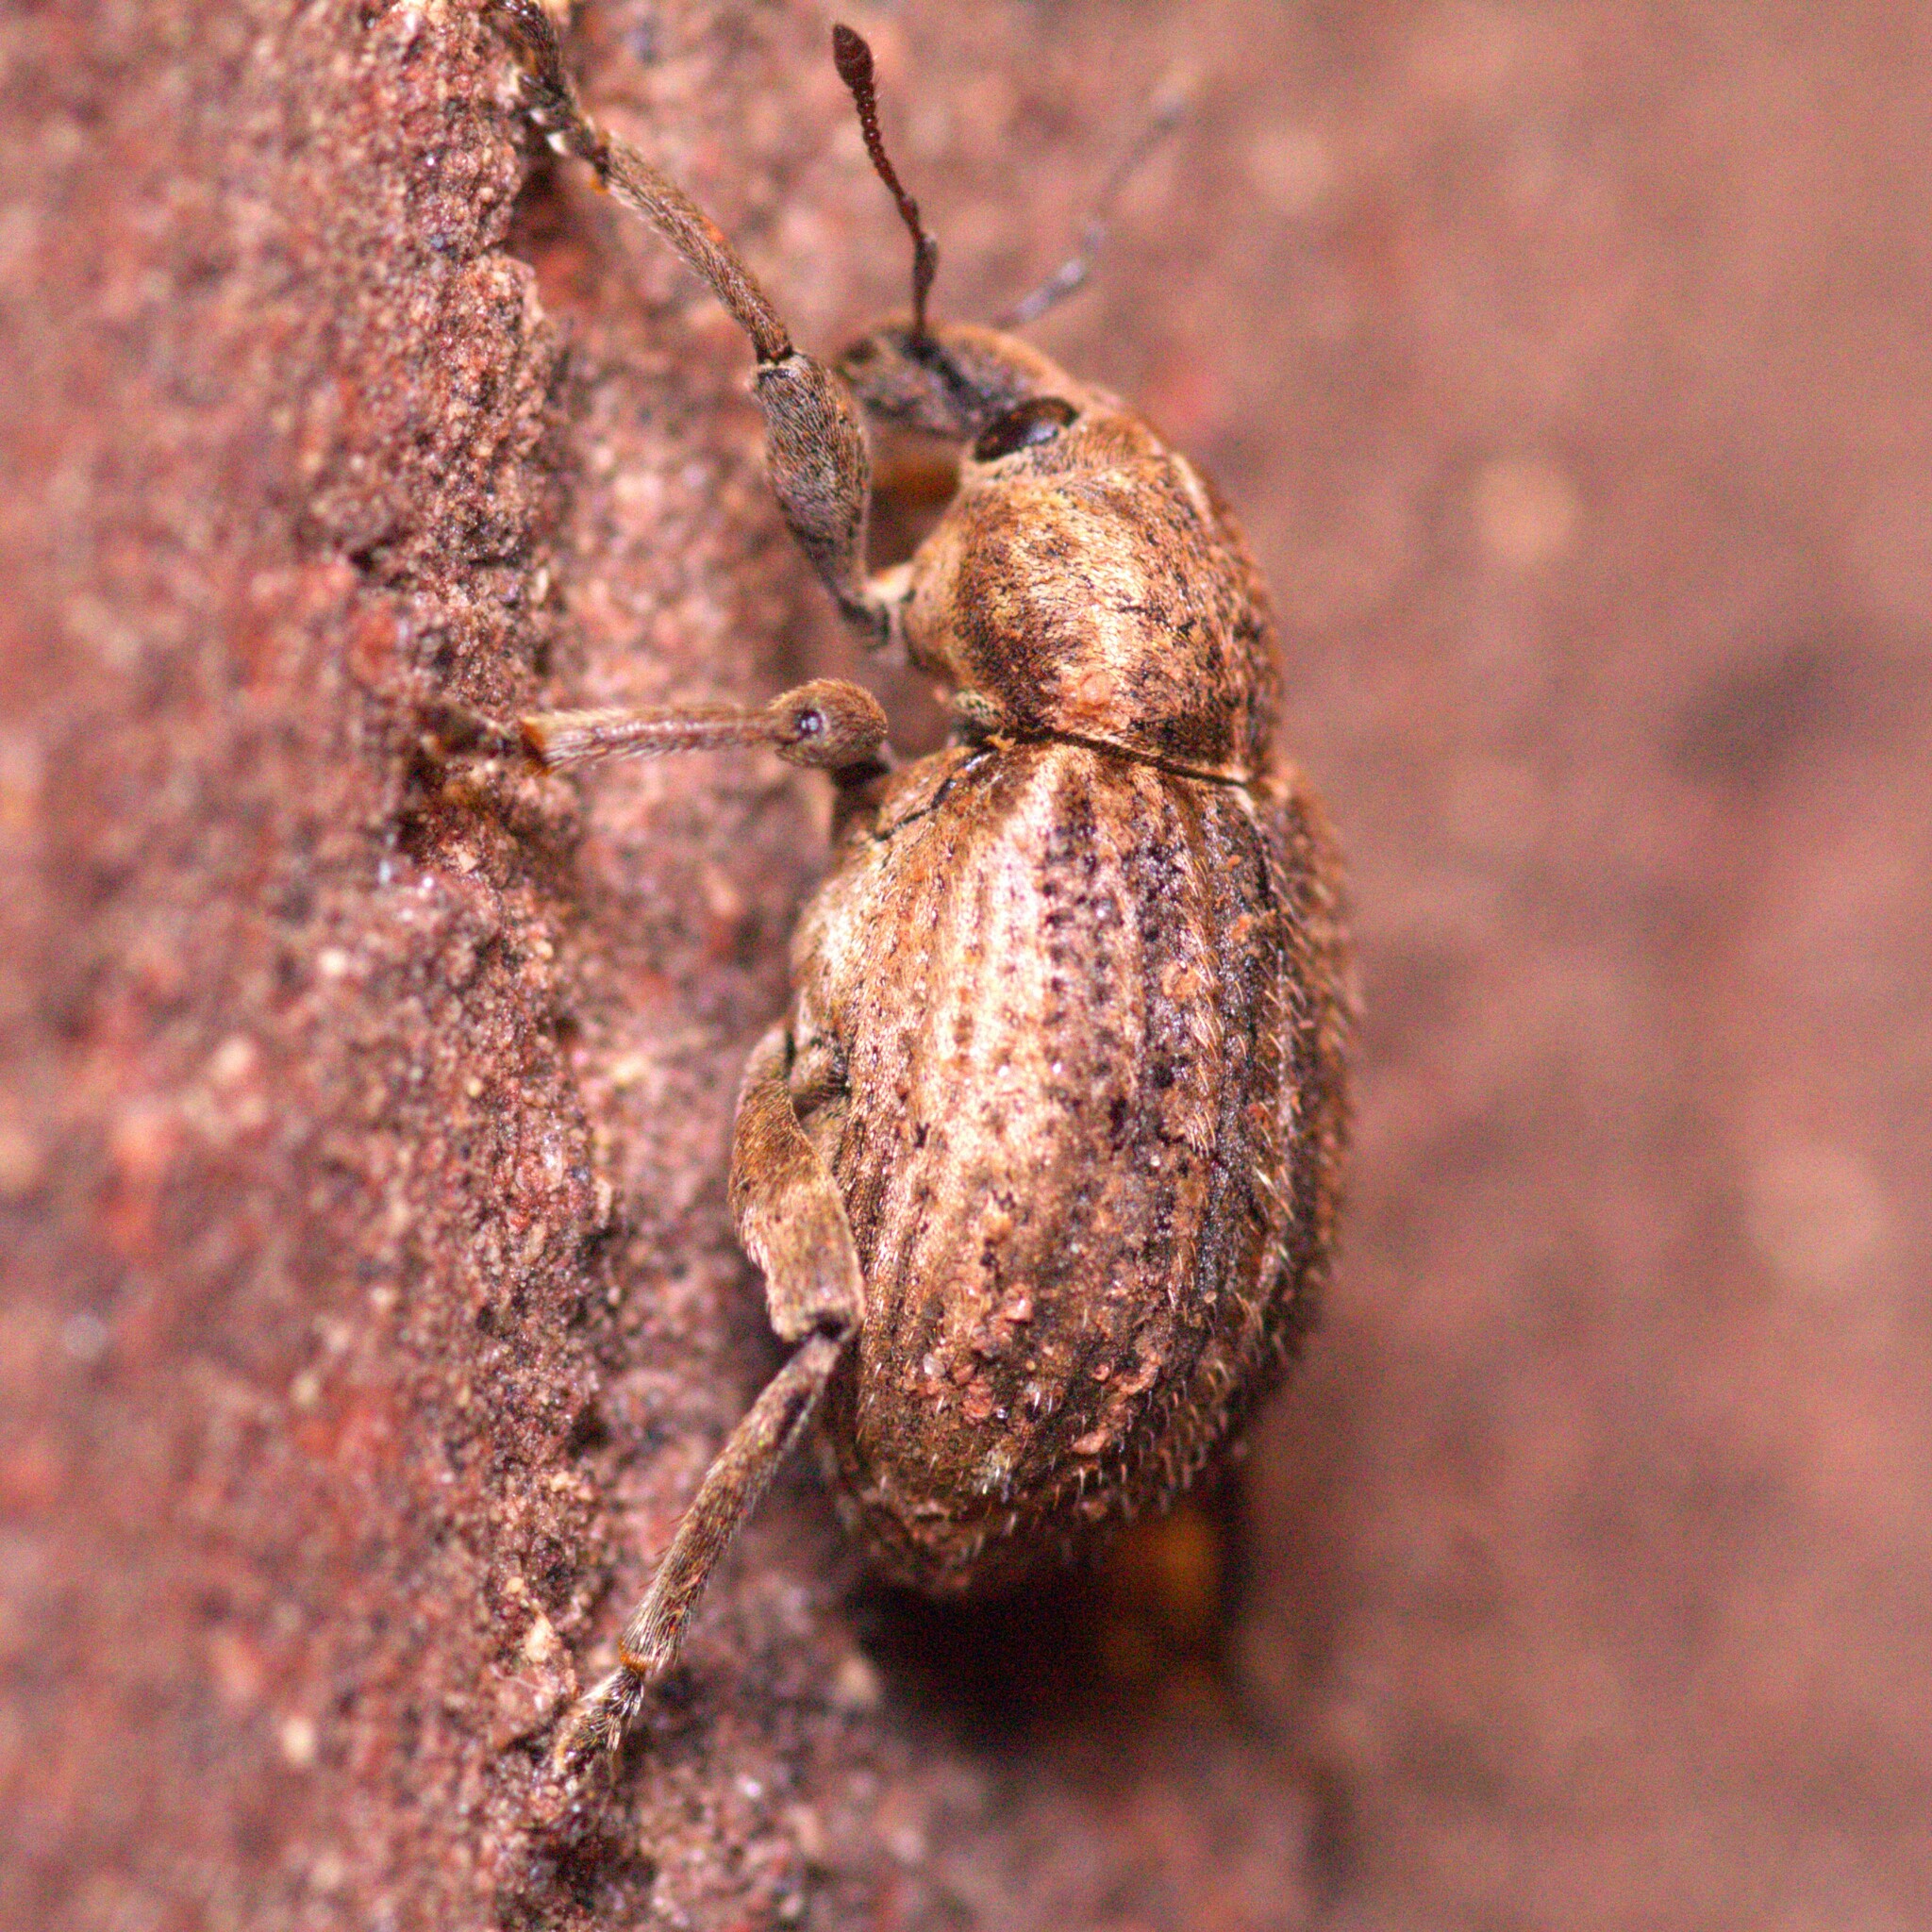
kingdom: Animalia
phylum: Arthropoda
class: Insecta
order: Coleoptera
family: Curculionidae
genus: Brachypera
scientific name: Brachypera zoilus
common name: Clover leaf weevil
